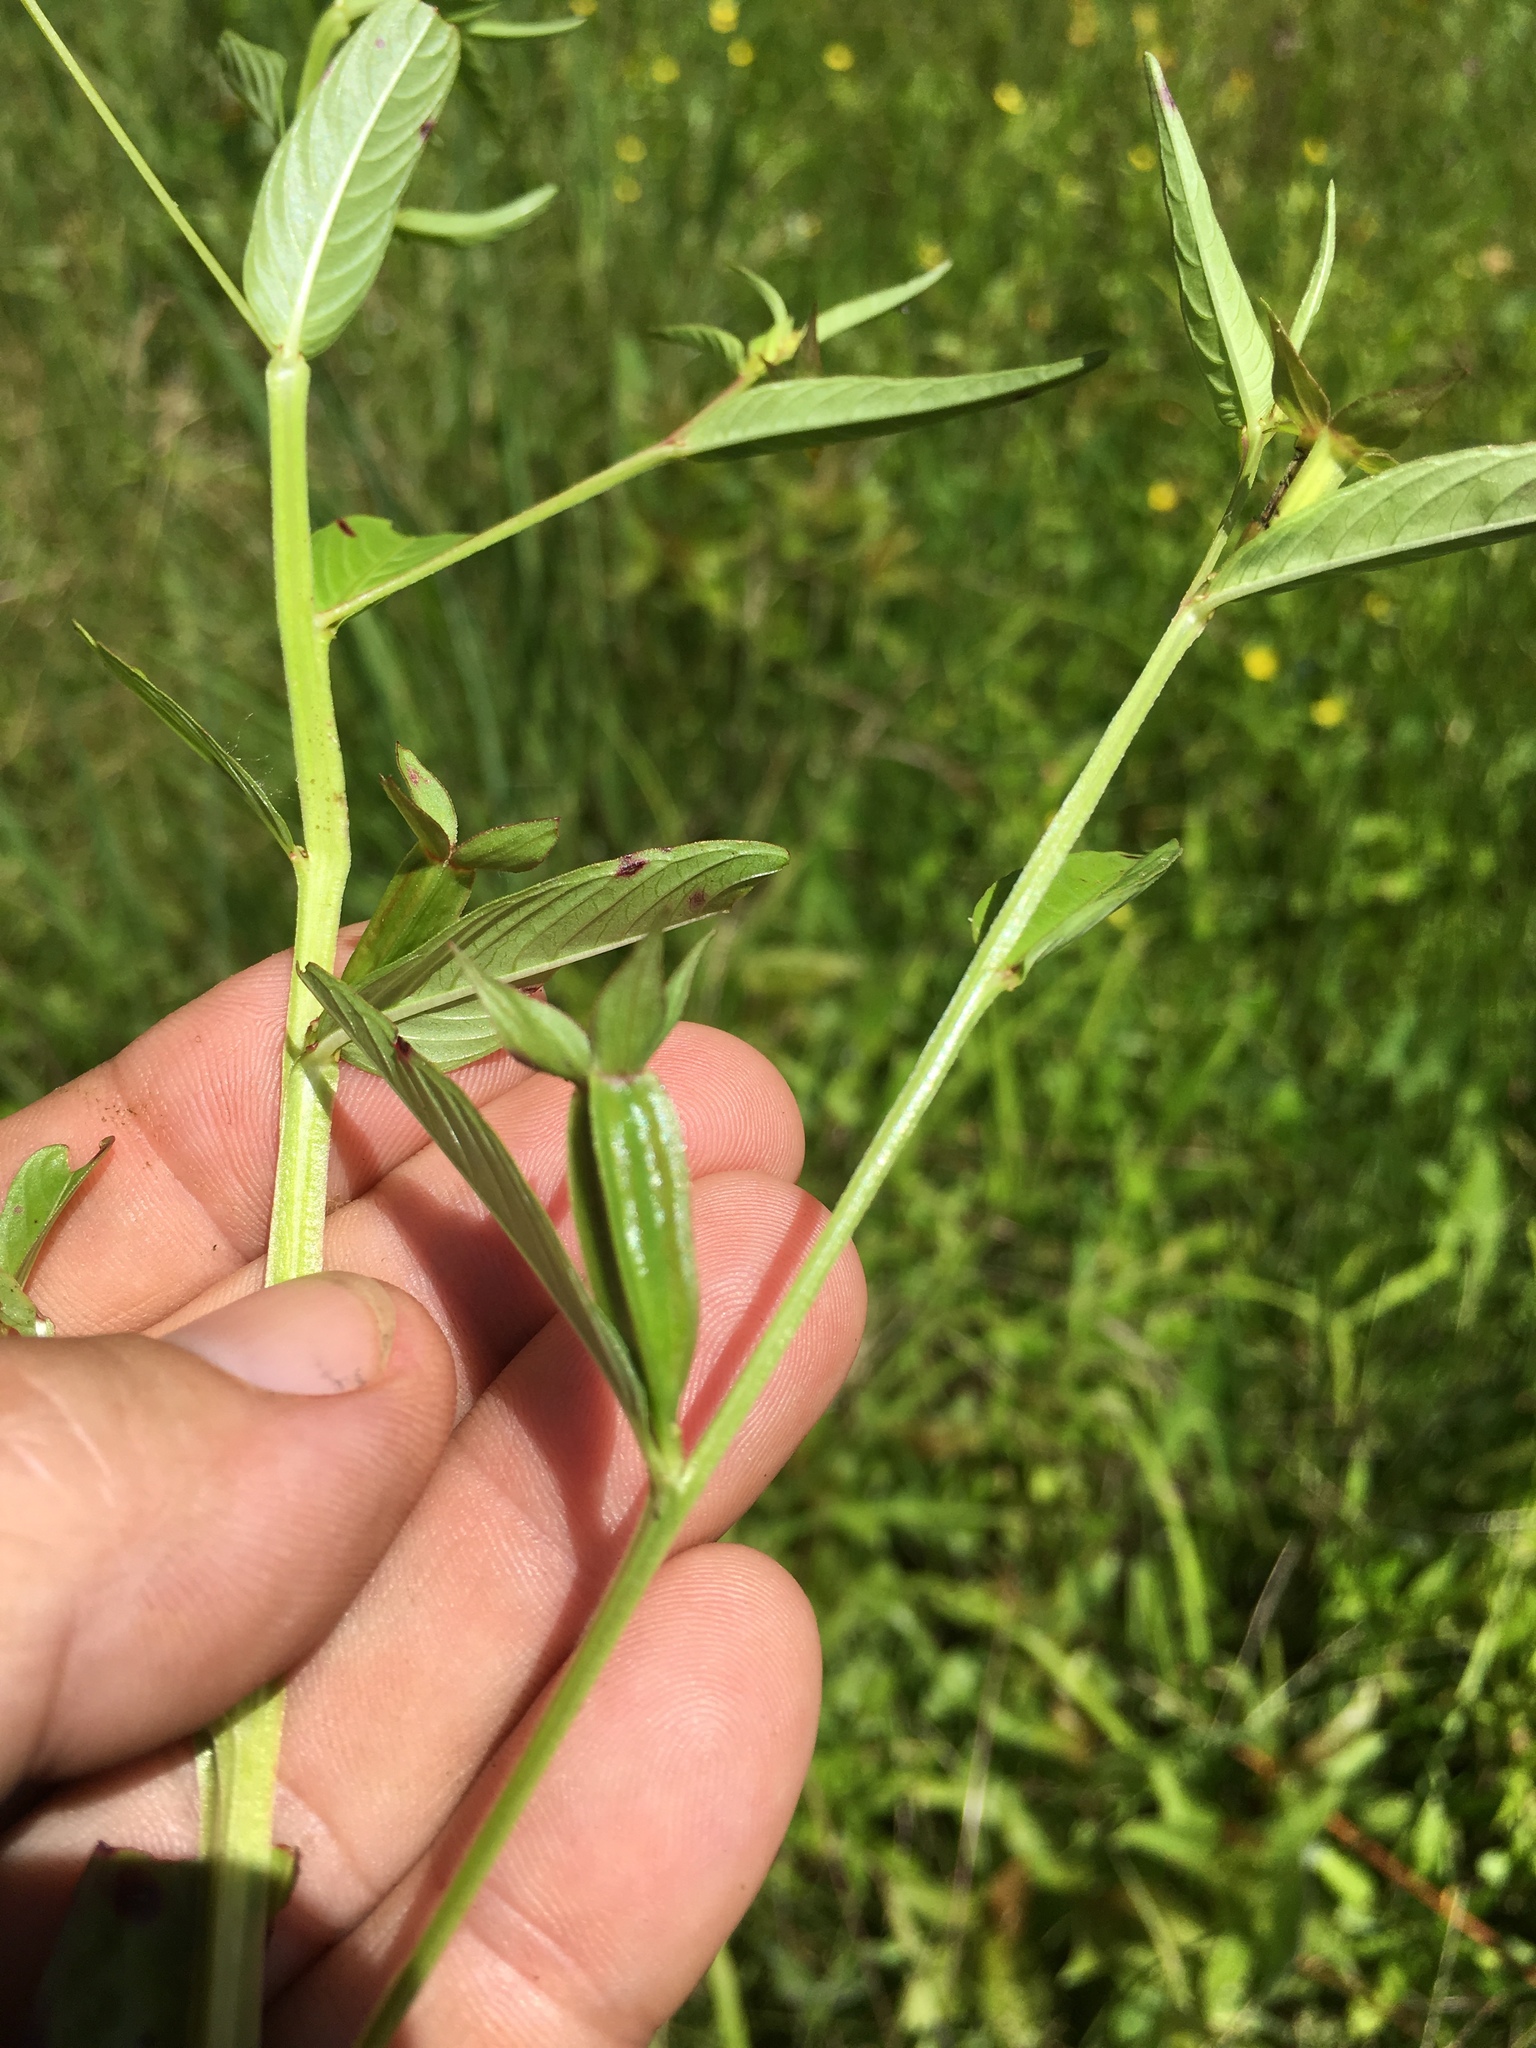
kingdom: Plantae
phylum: Tracheophyta
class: Magnoliopsida
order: Myrtales
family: Onagraceae
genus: Ludwigia
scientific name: Ludwigia decurrens
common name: Winged water-primrose
